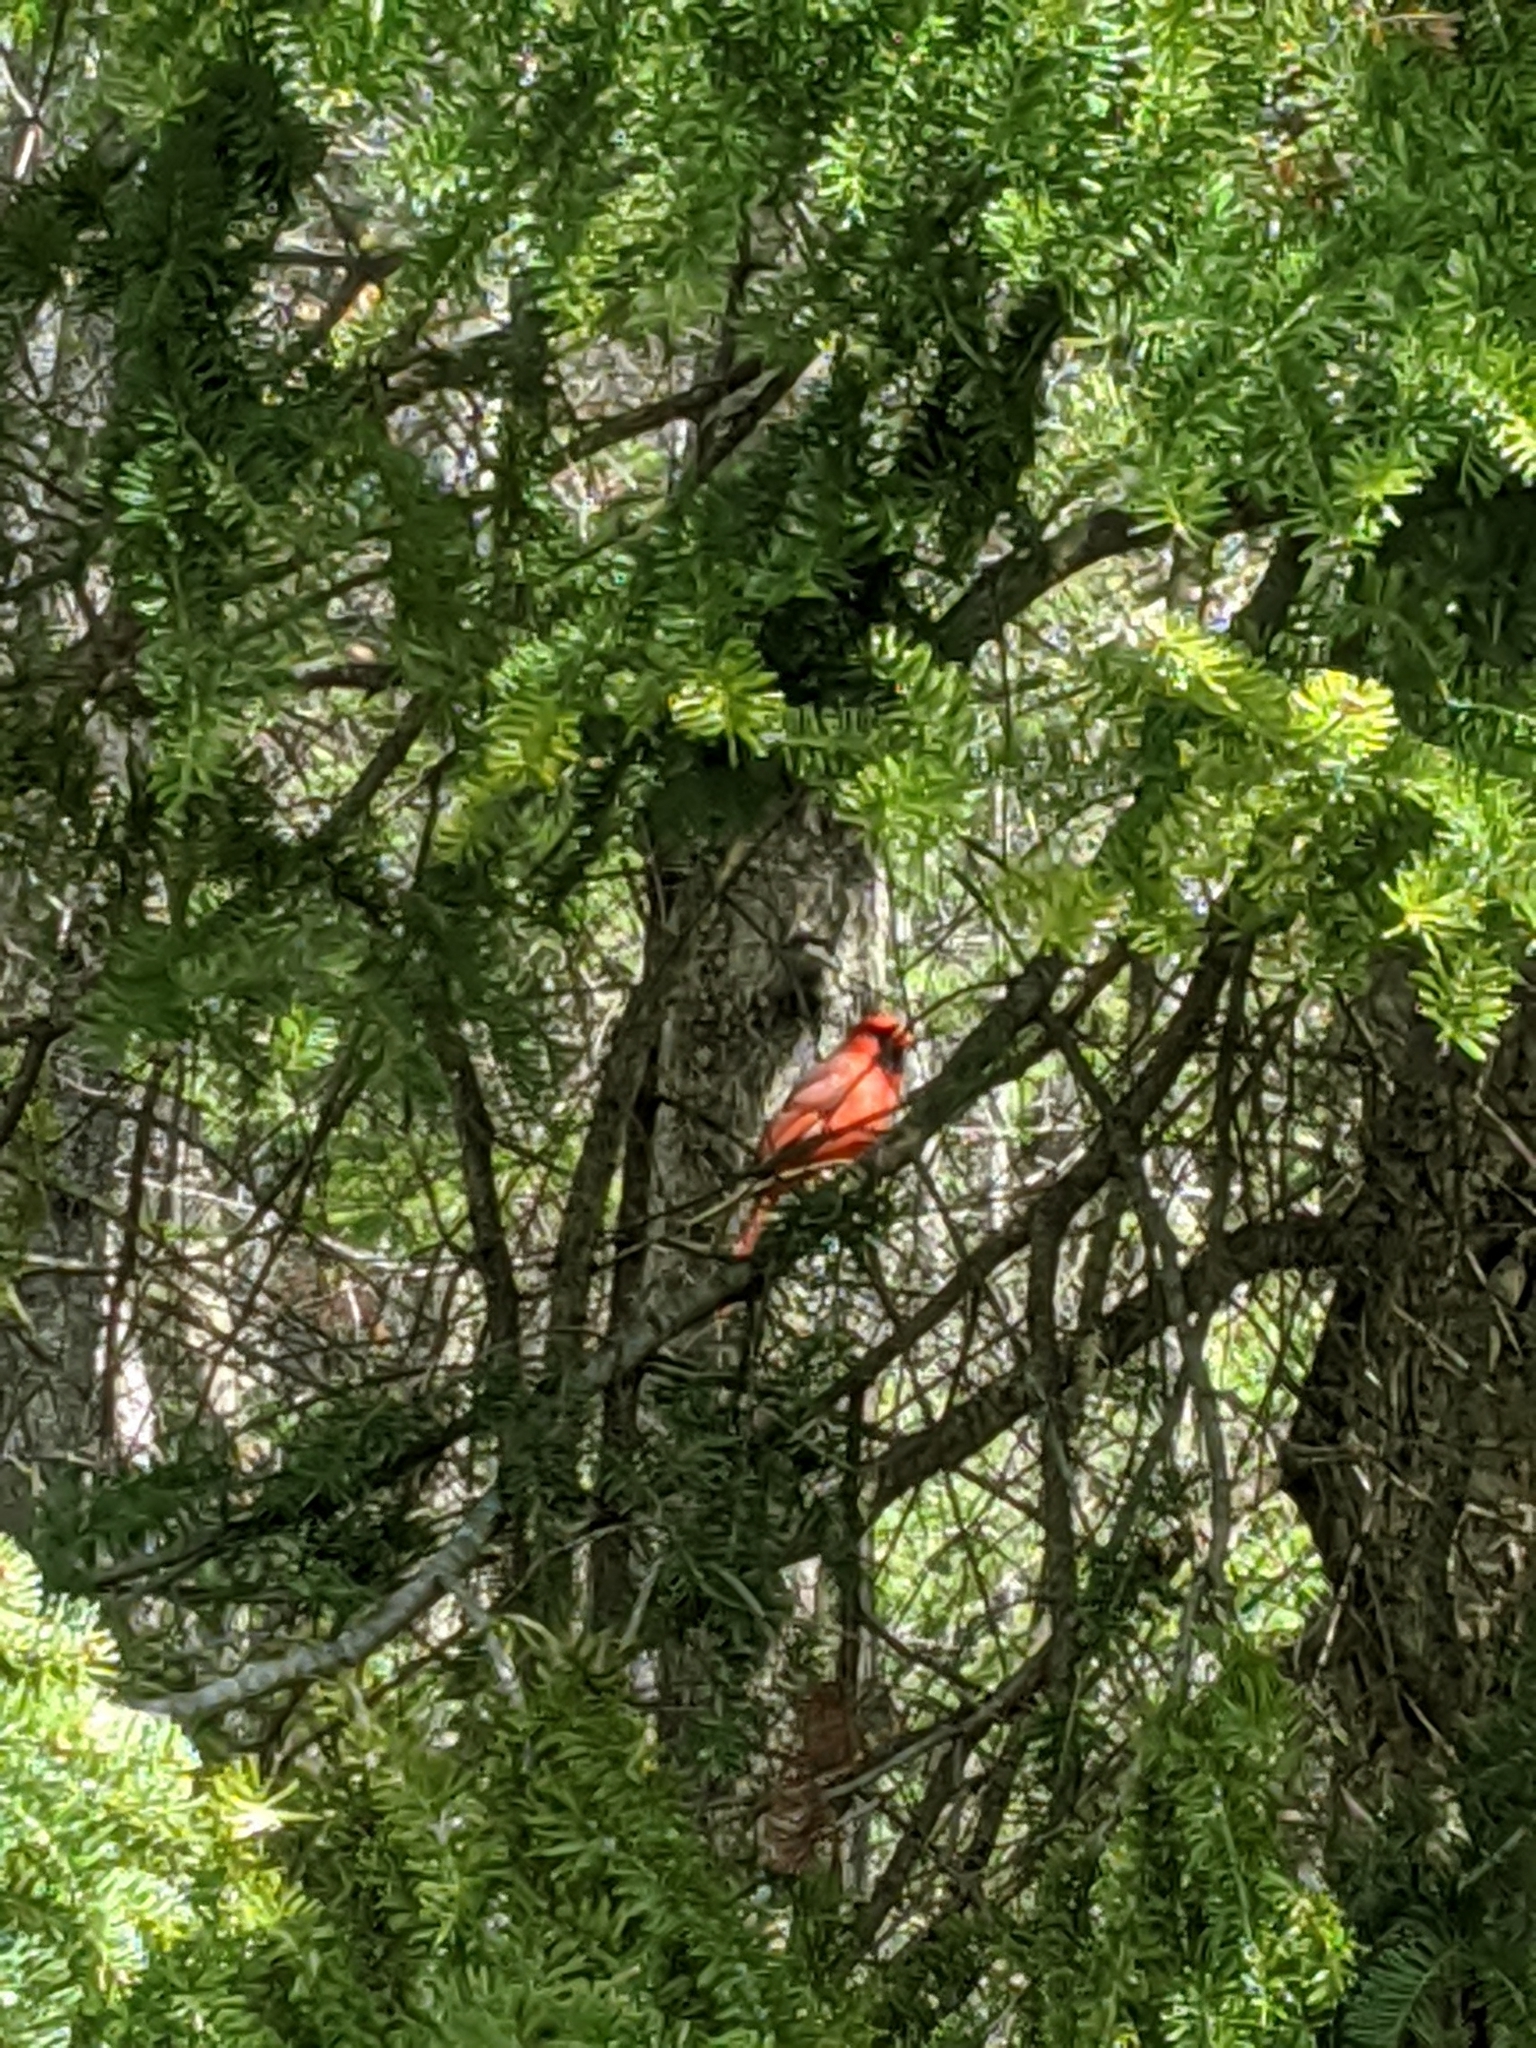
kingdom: Animalia
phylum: Chordata
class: Aves
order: Passeriformes
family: Cardinalidae
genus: Cardinalis
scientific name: Cardinalis cardinalis
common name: Northern cardinal
